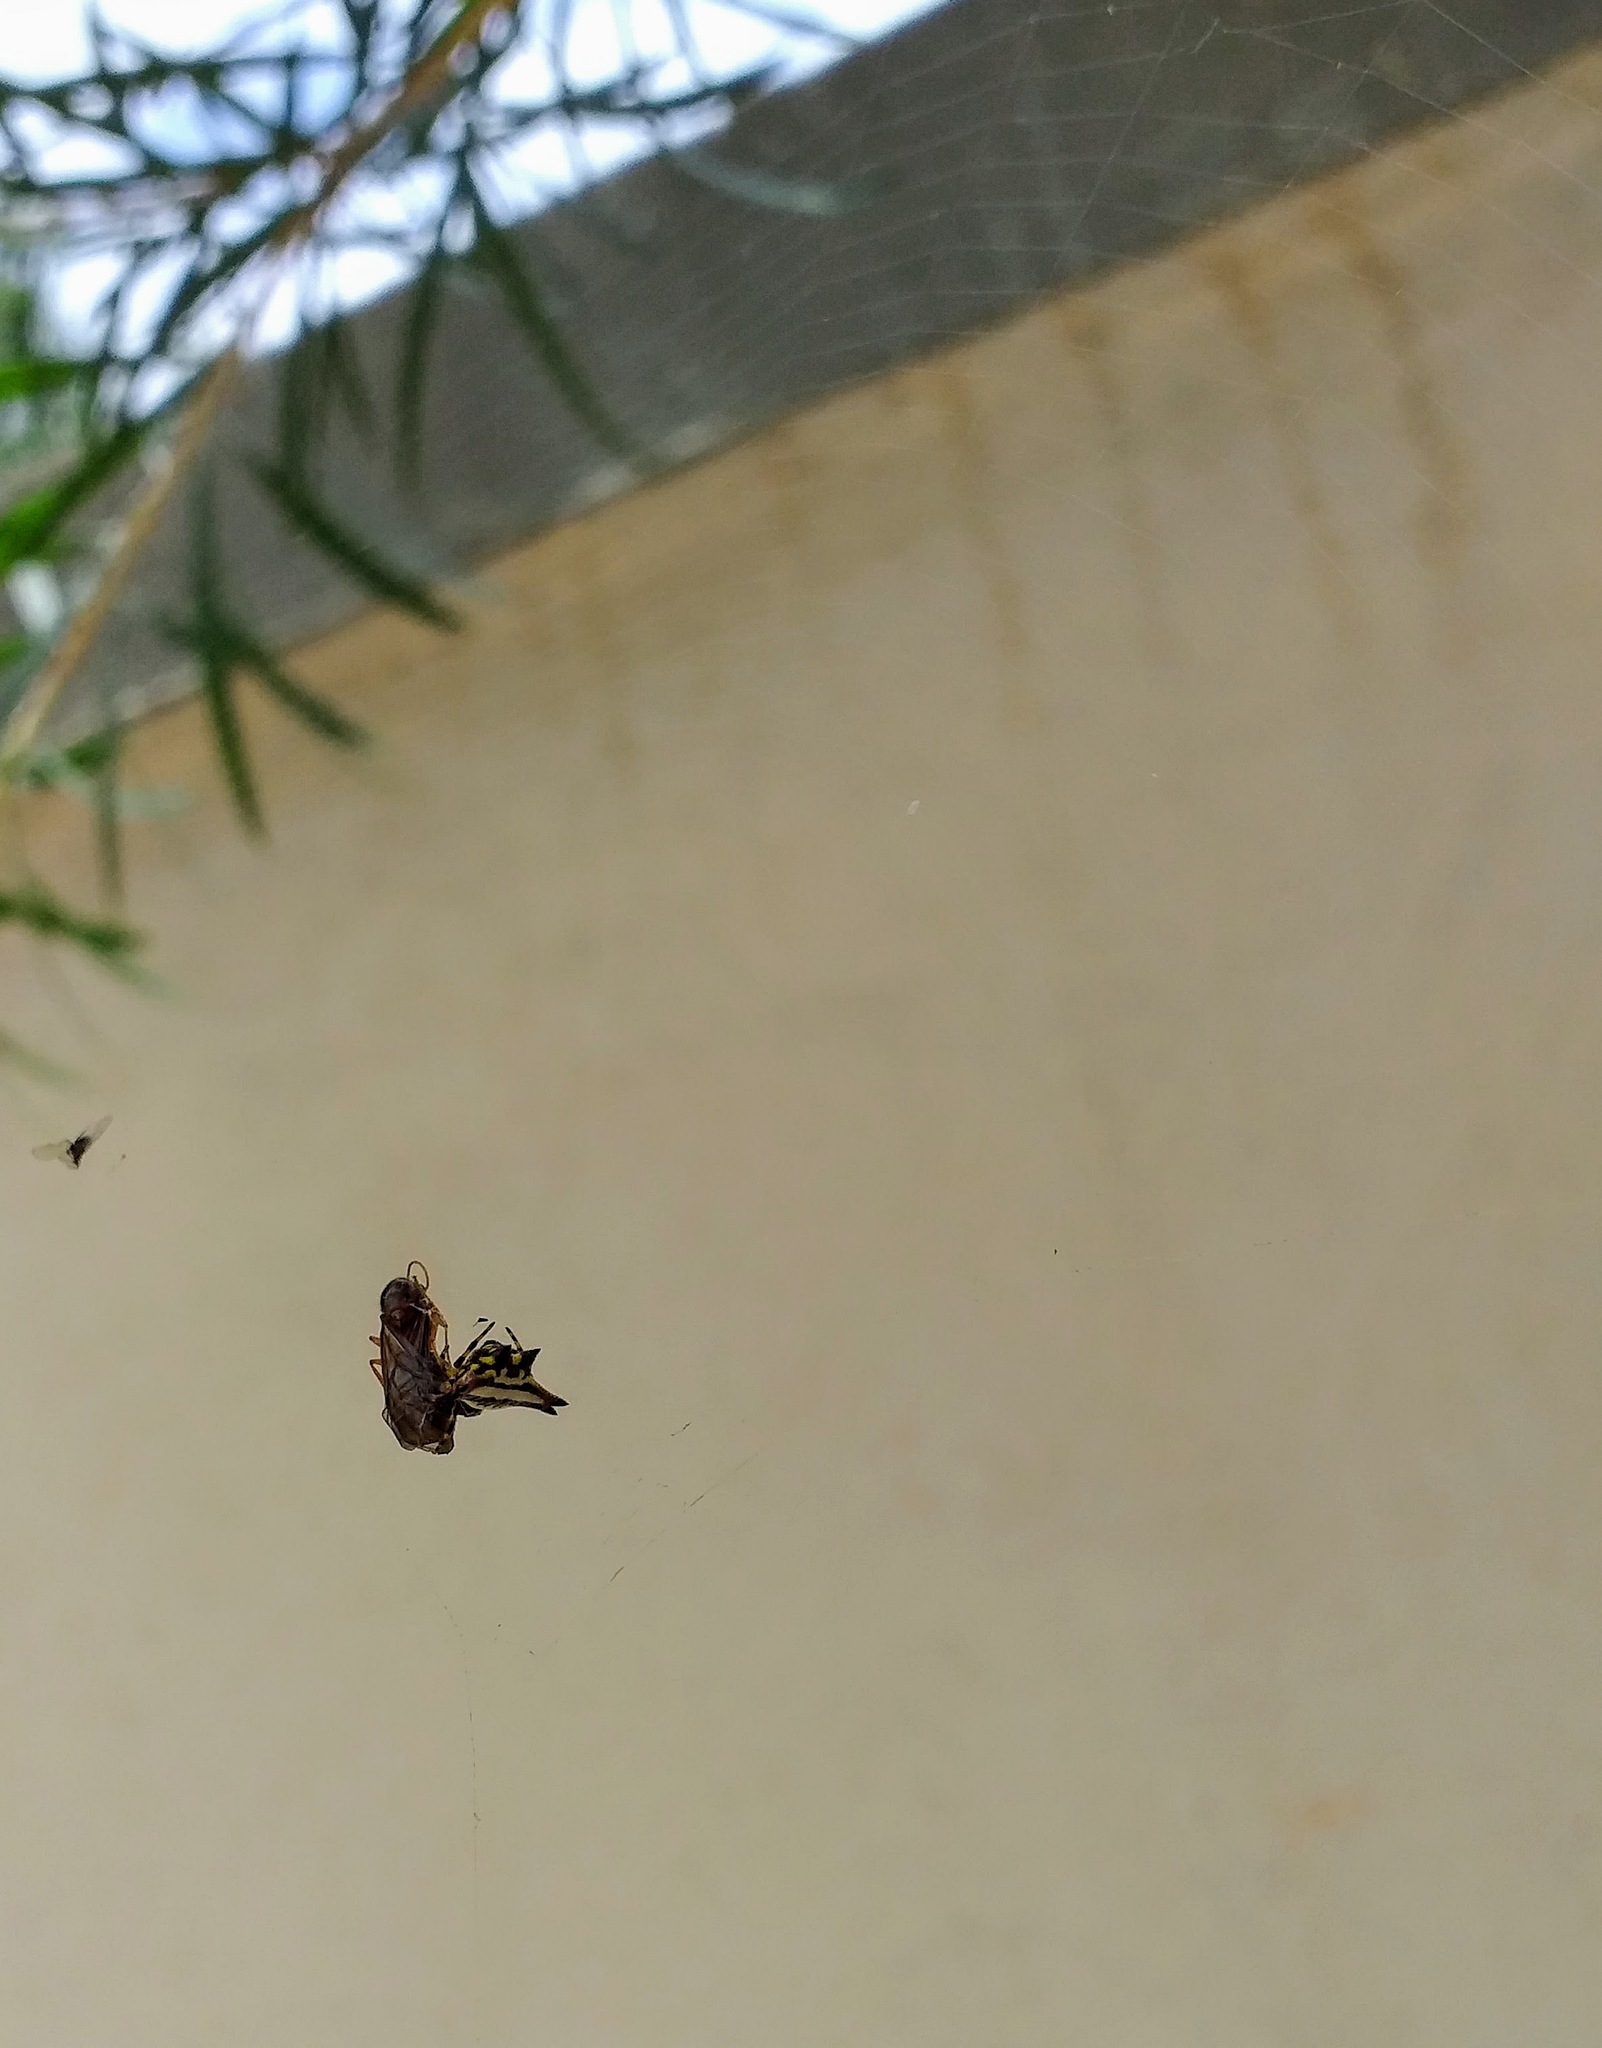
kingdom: Animalia
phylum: Arthropoda
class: Arachnida
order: Araneae
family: Araneidae
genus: Gasteracantha
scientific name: Gasteracantha geminata
